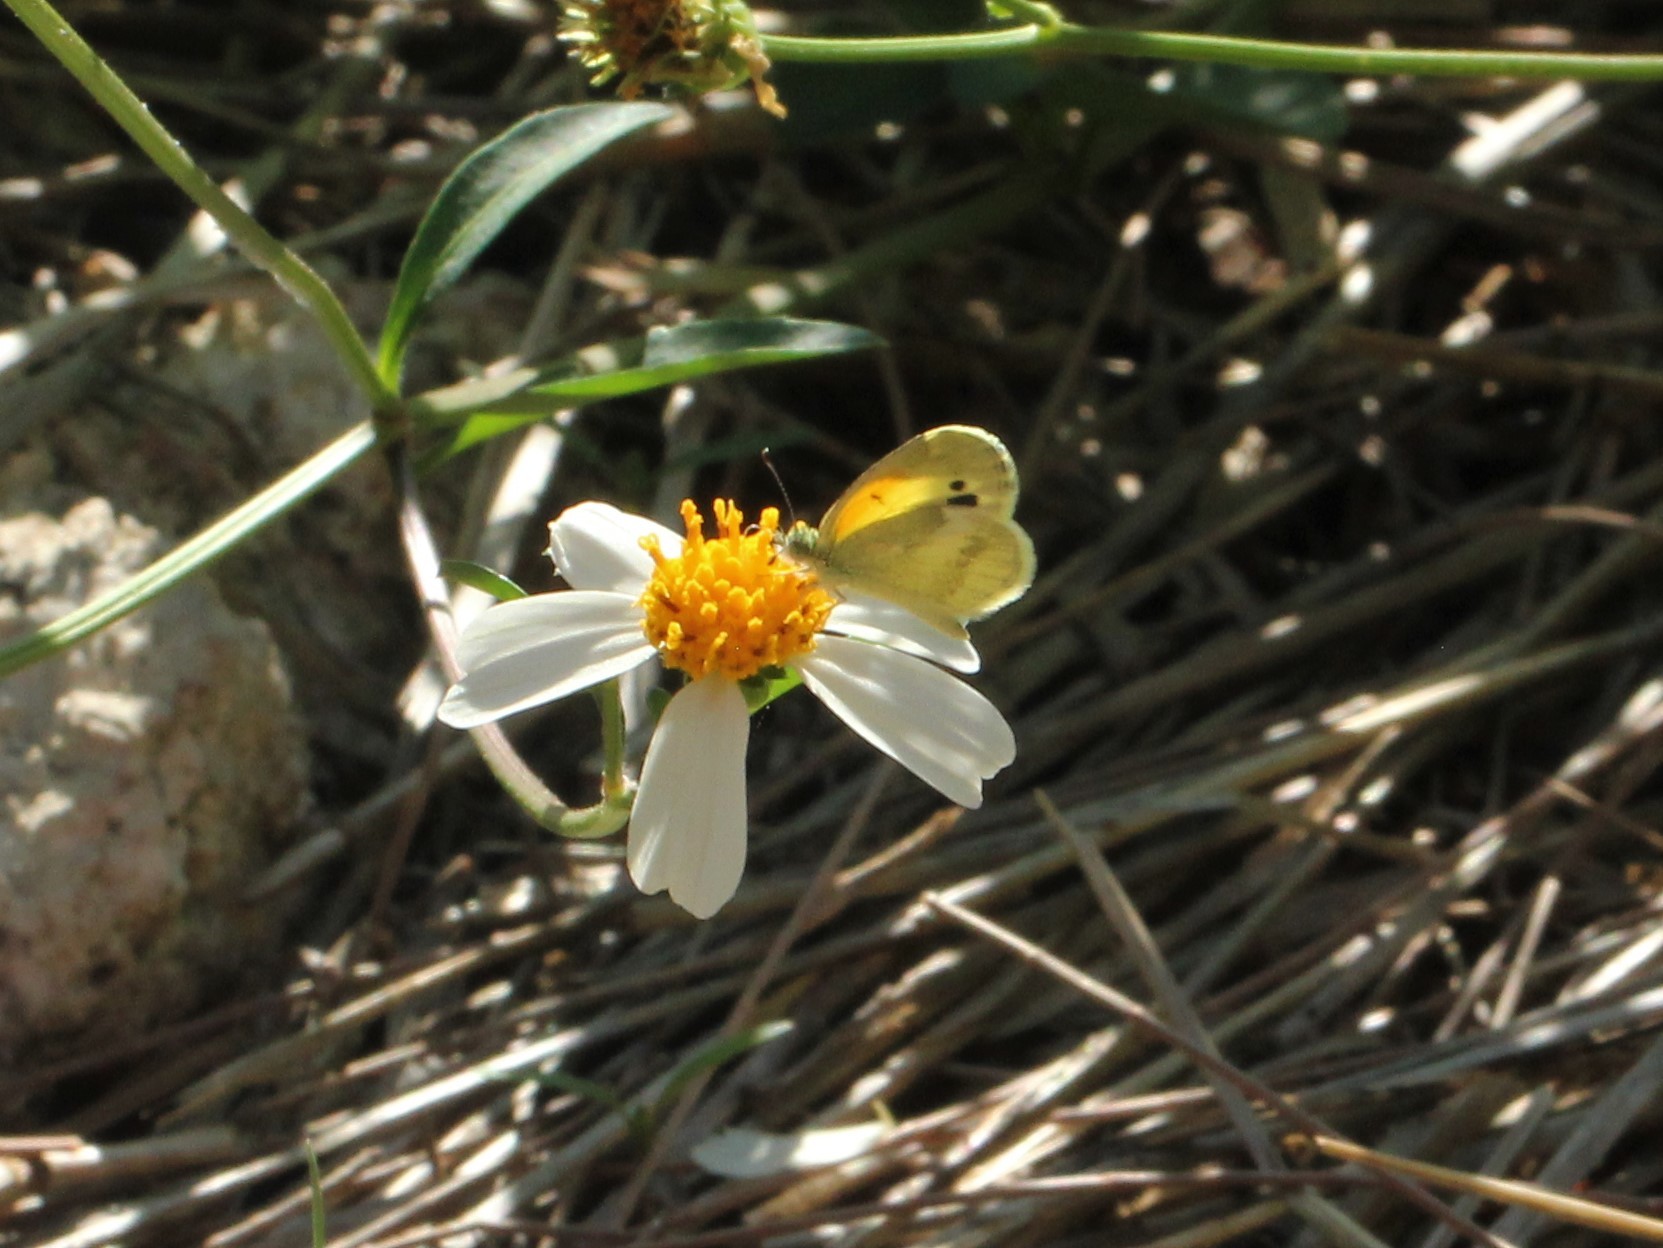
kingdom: Animalia
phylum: Arthropoda
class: Insecta
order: Lepidoptera
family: Pieridae
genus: Nathalis
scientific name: Nathalis iole
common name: Dainty sulphur
